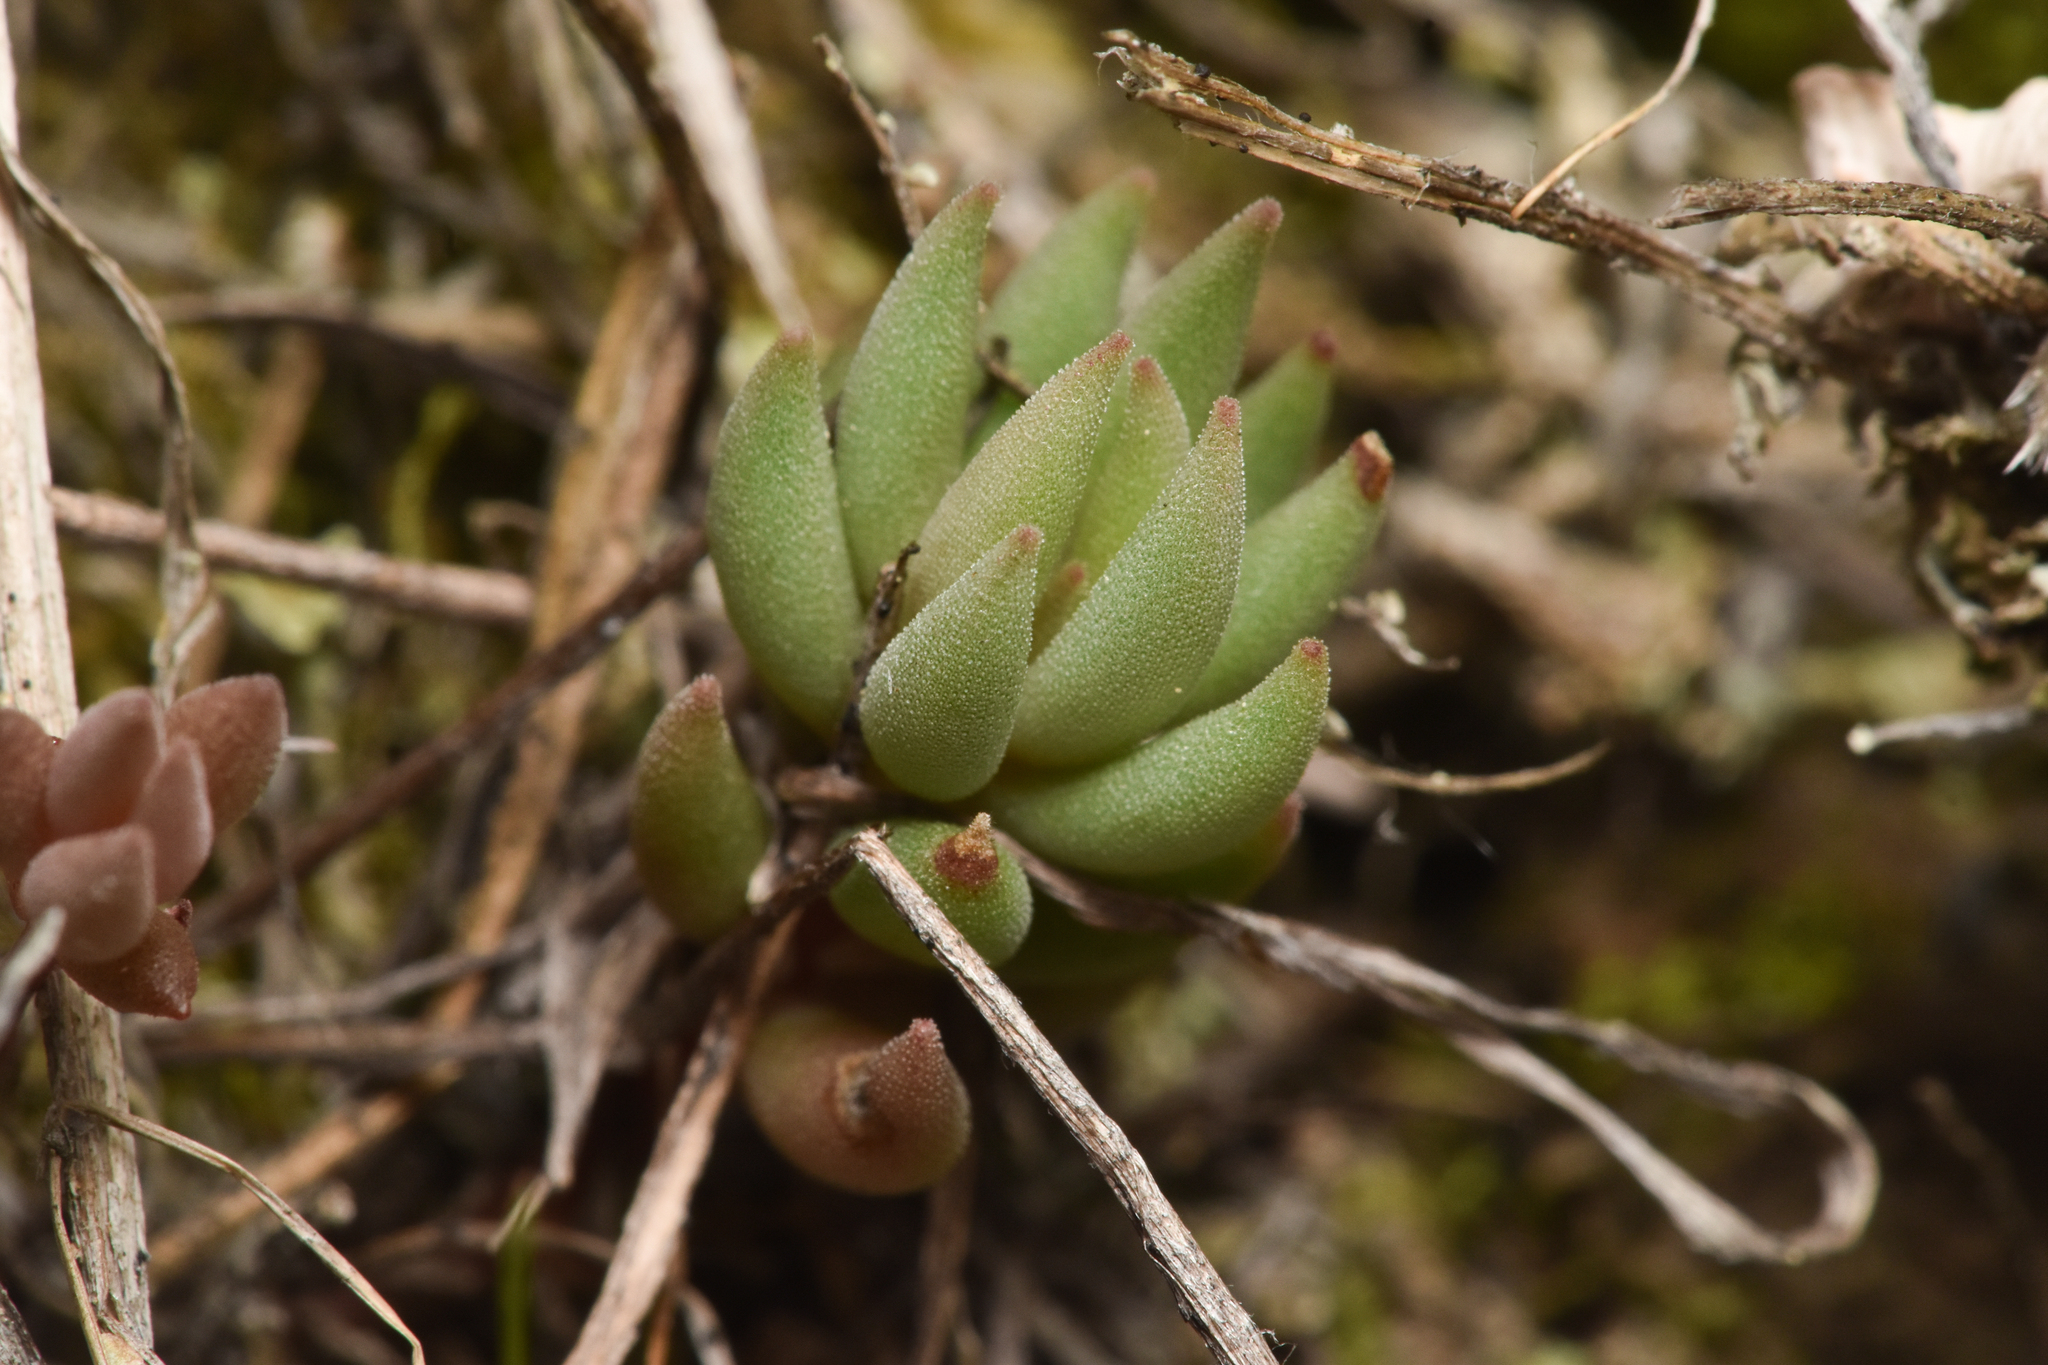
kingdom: Plantae
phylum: Tracheophyta
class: Magnoliopsida
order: Saxifragales
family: Crassulaceae
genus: Sedum
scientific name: Sedum lanceolatum
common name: Common stonecrop
